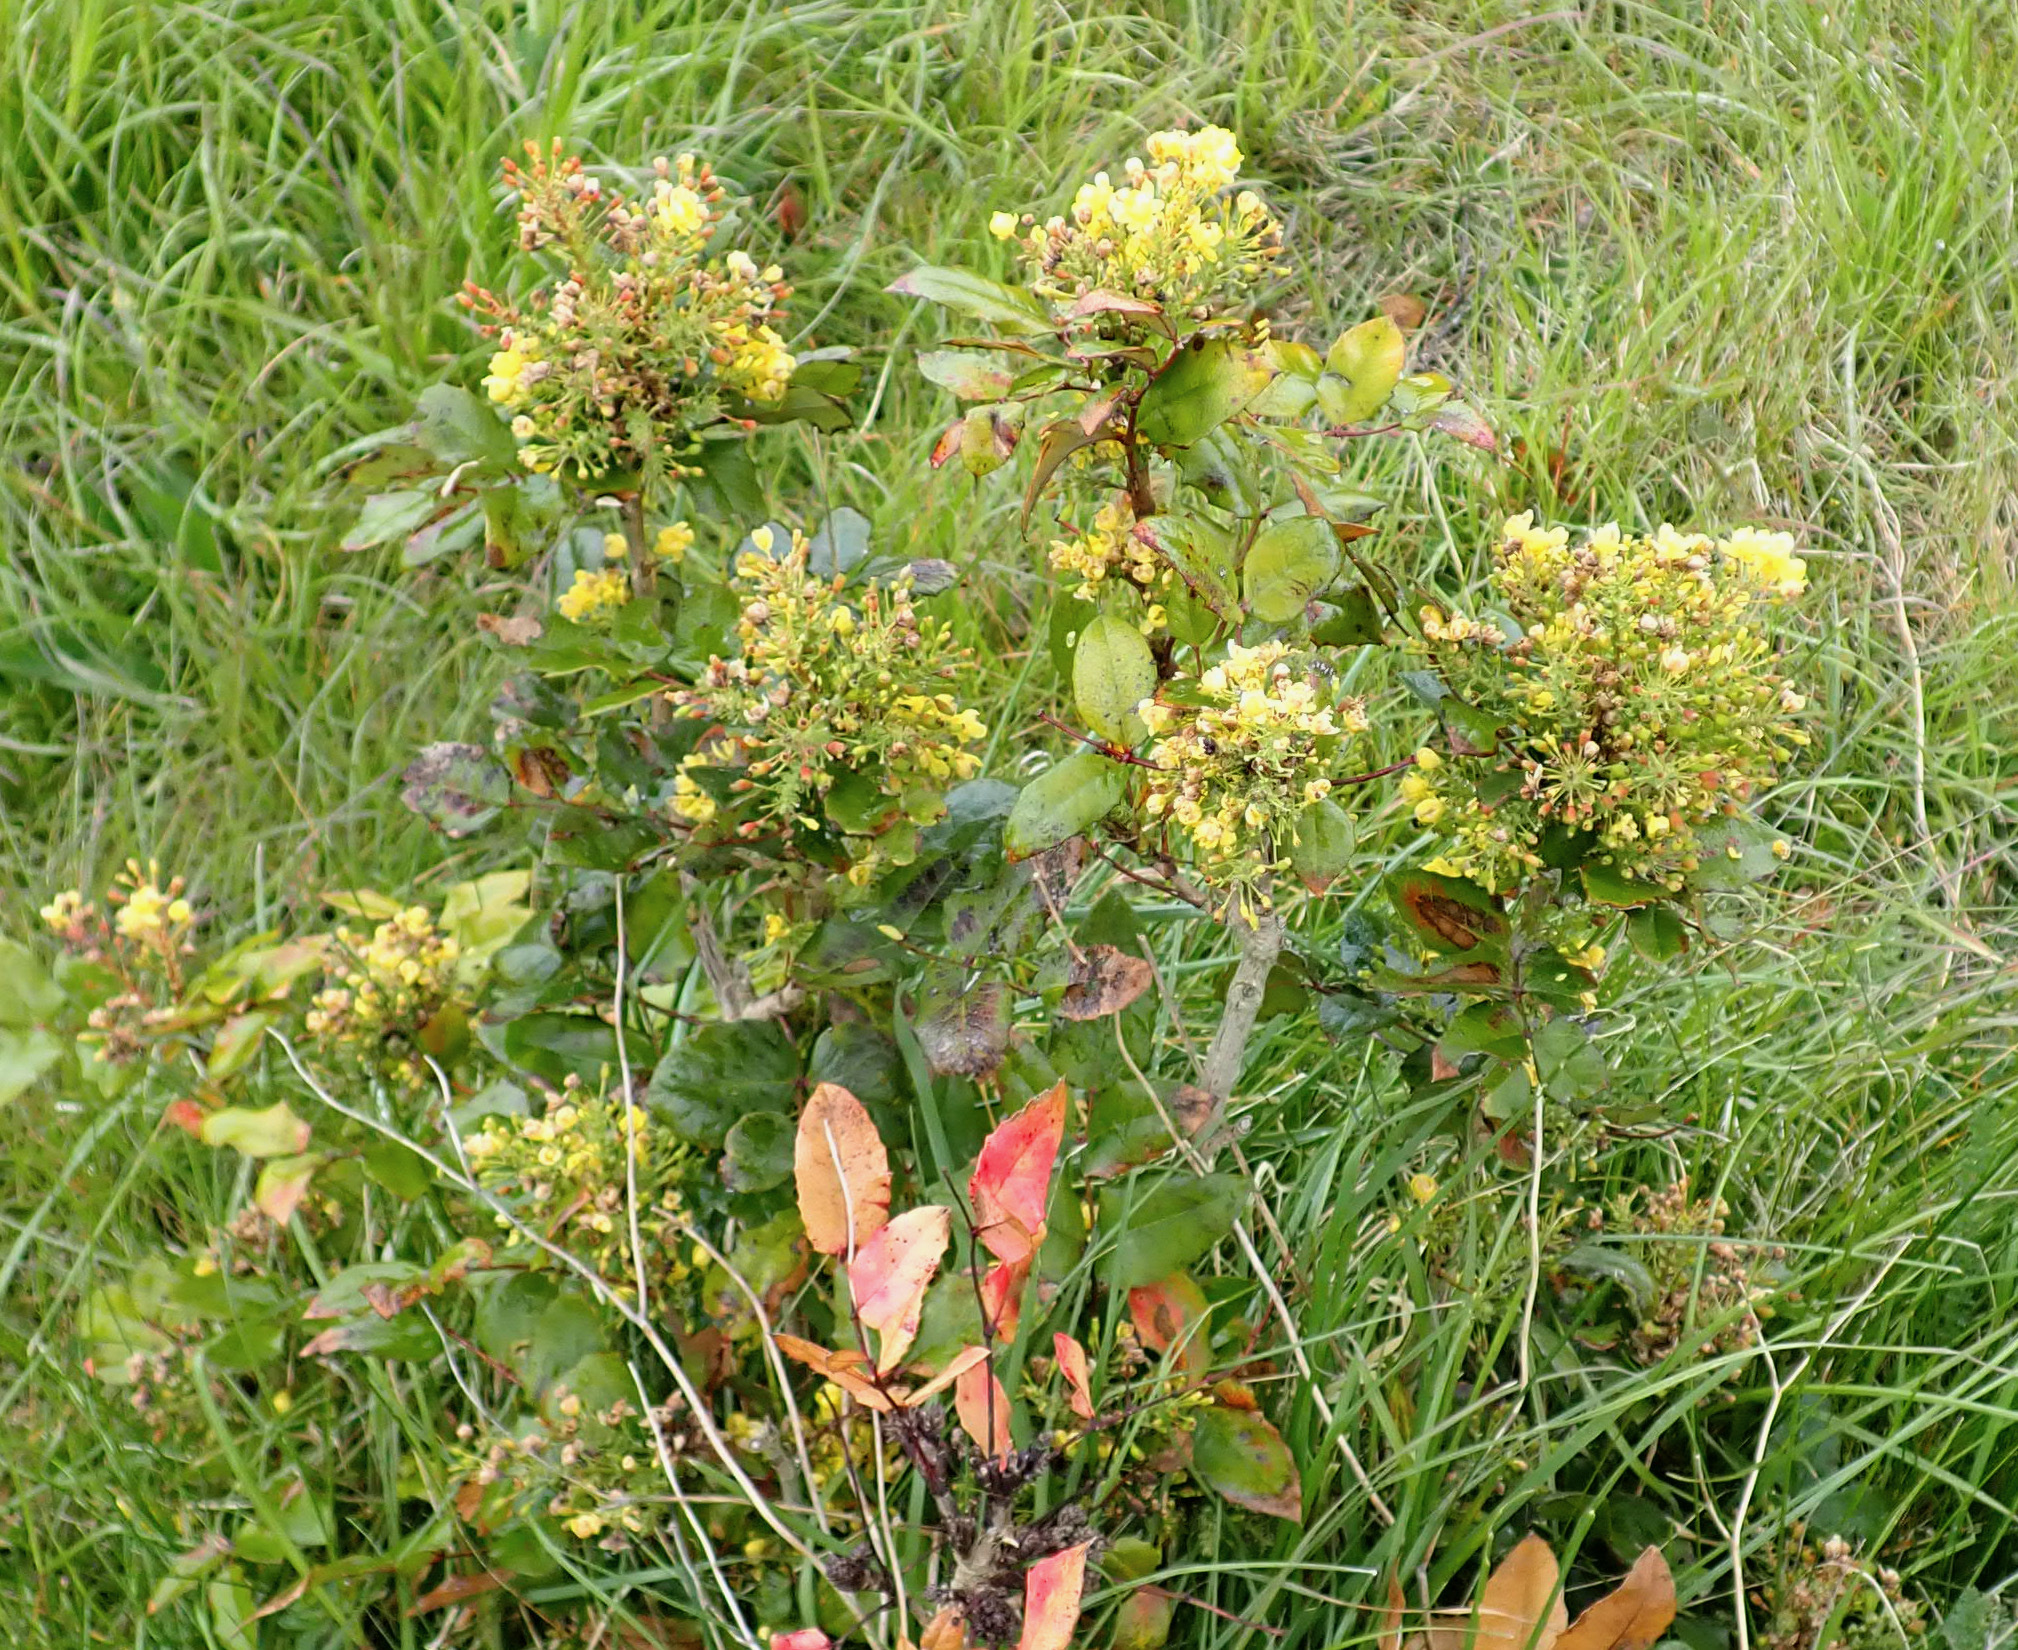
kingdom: Plantae
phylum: Tracheophyta
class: Magnoliopsida
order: Ranunculales
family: Berberidaceae
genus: Mahonia
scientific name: Mahonia aquifolium
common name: Oregon-grape
